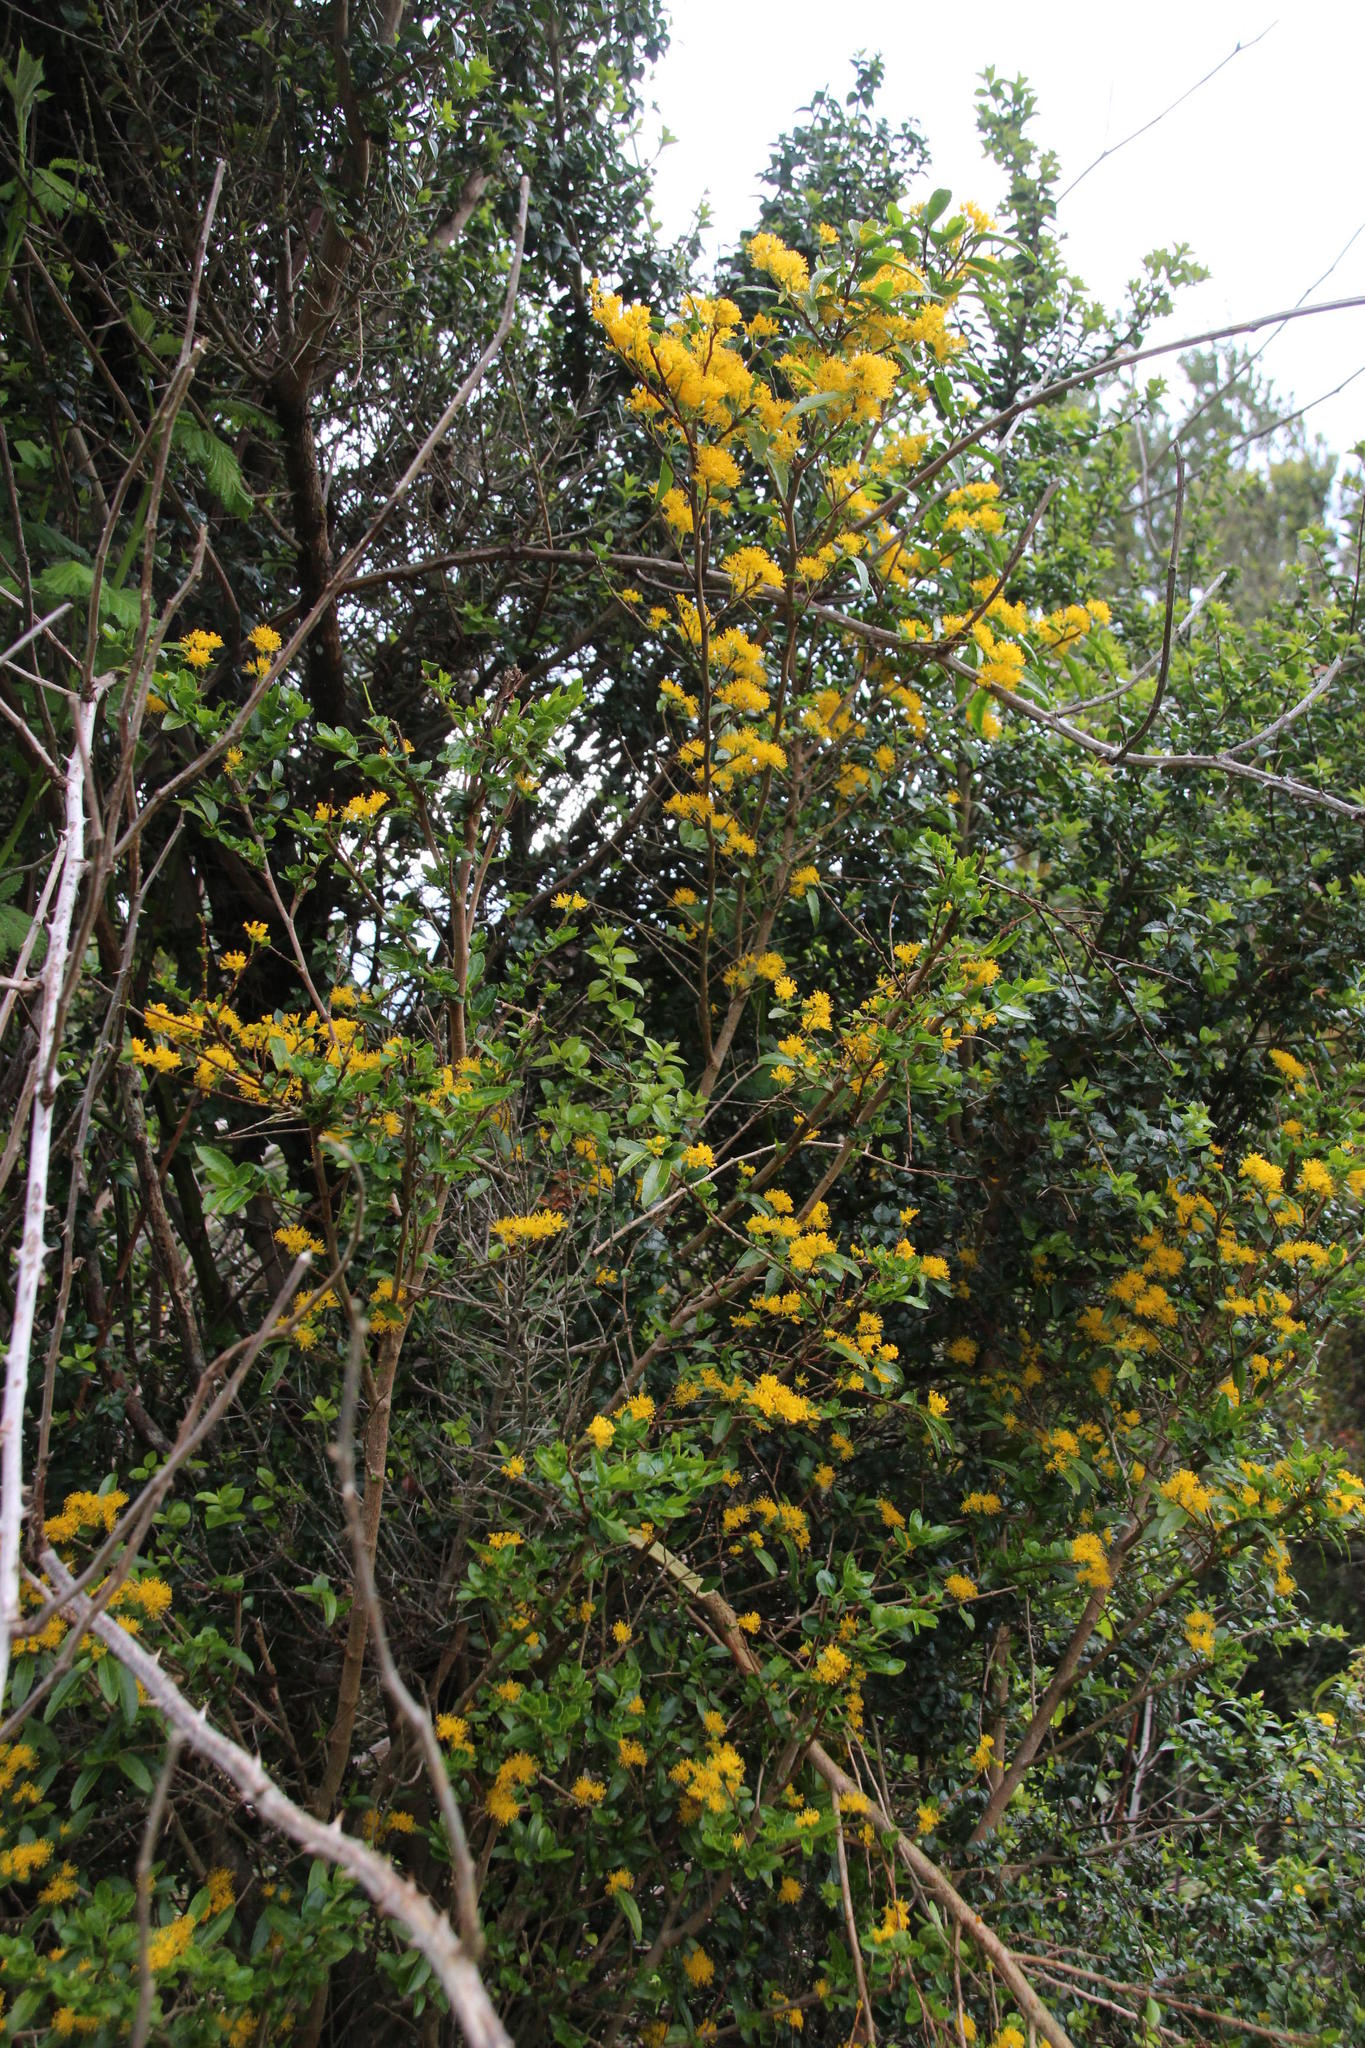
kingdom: Plantae
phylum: Tracheophyta
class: Magnoliopsida
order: Malpighiales
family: Salicaceae
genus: Azara
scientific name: Azara lanceolata
